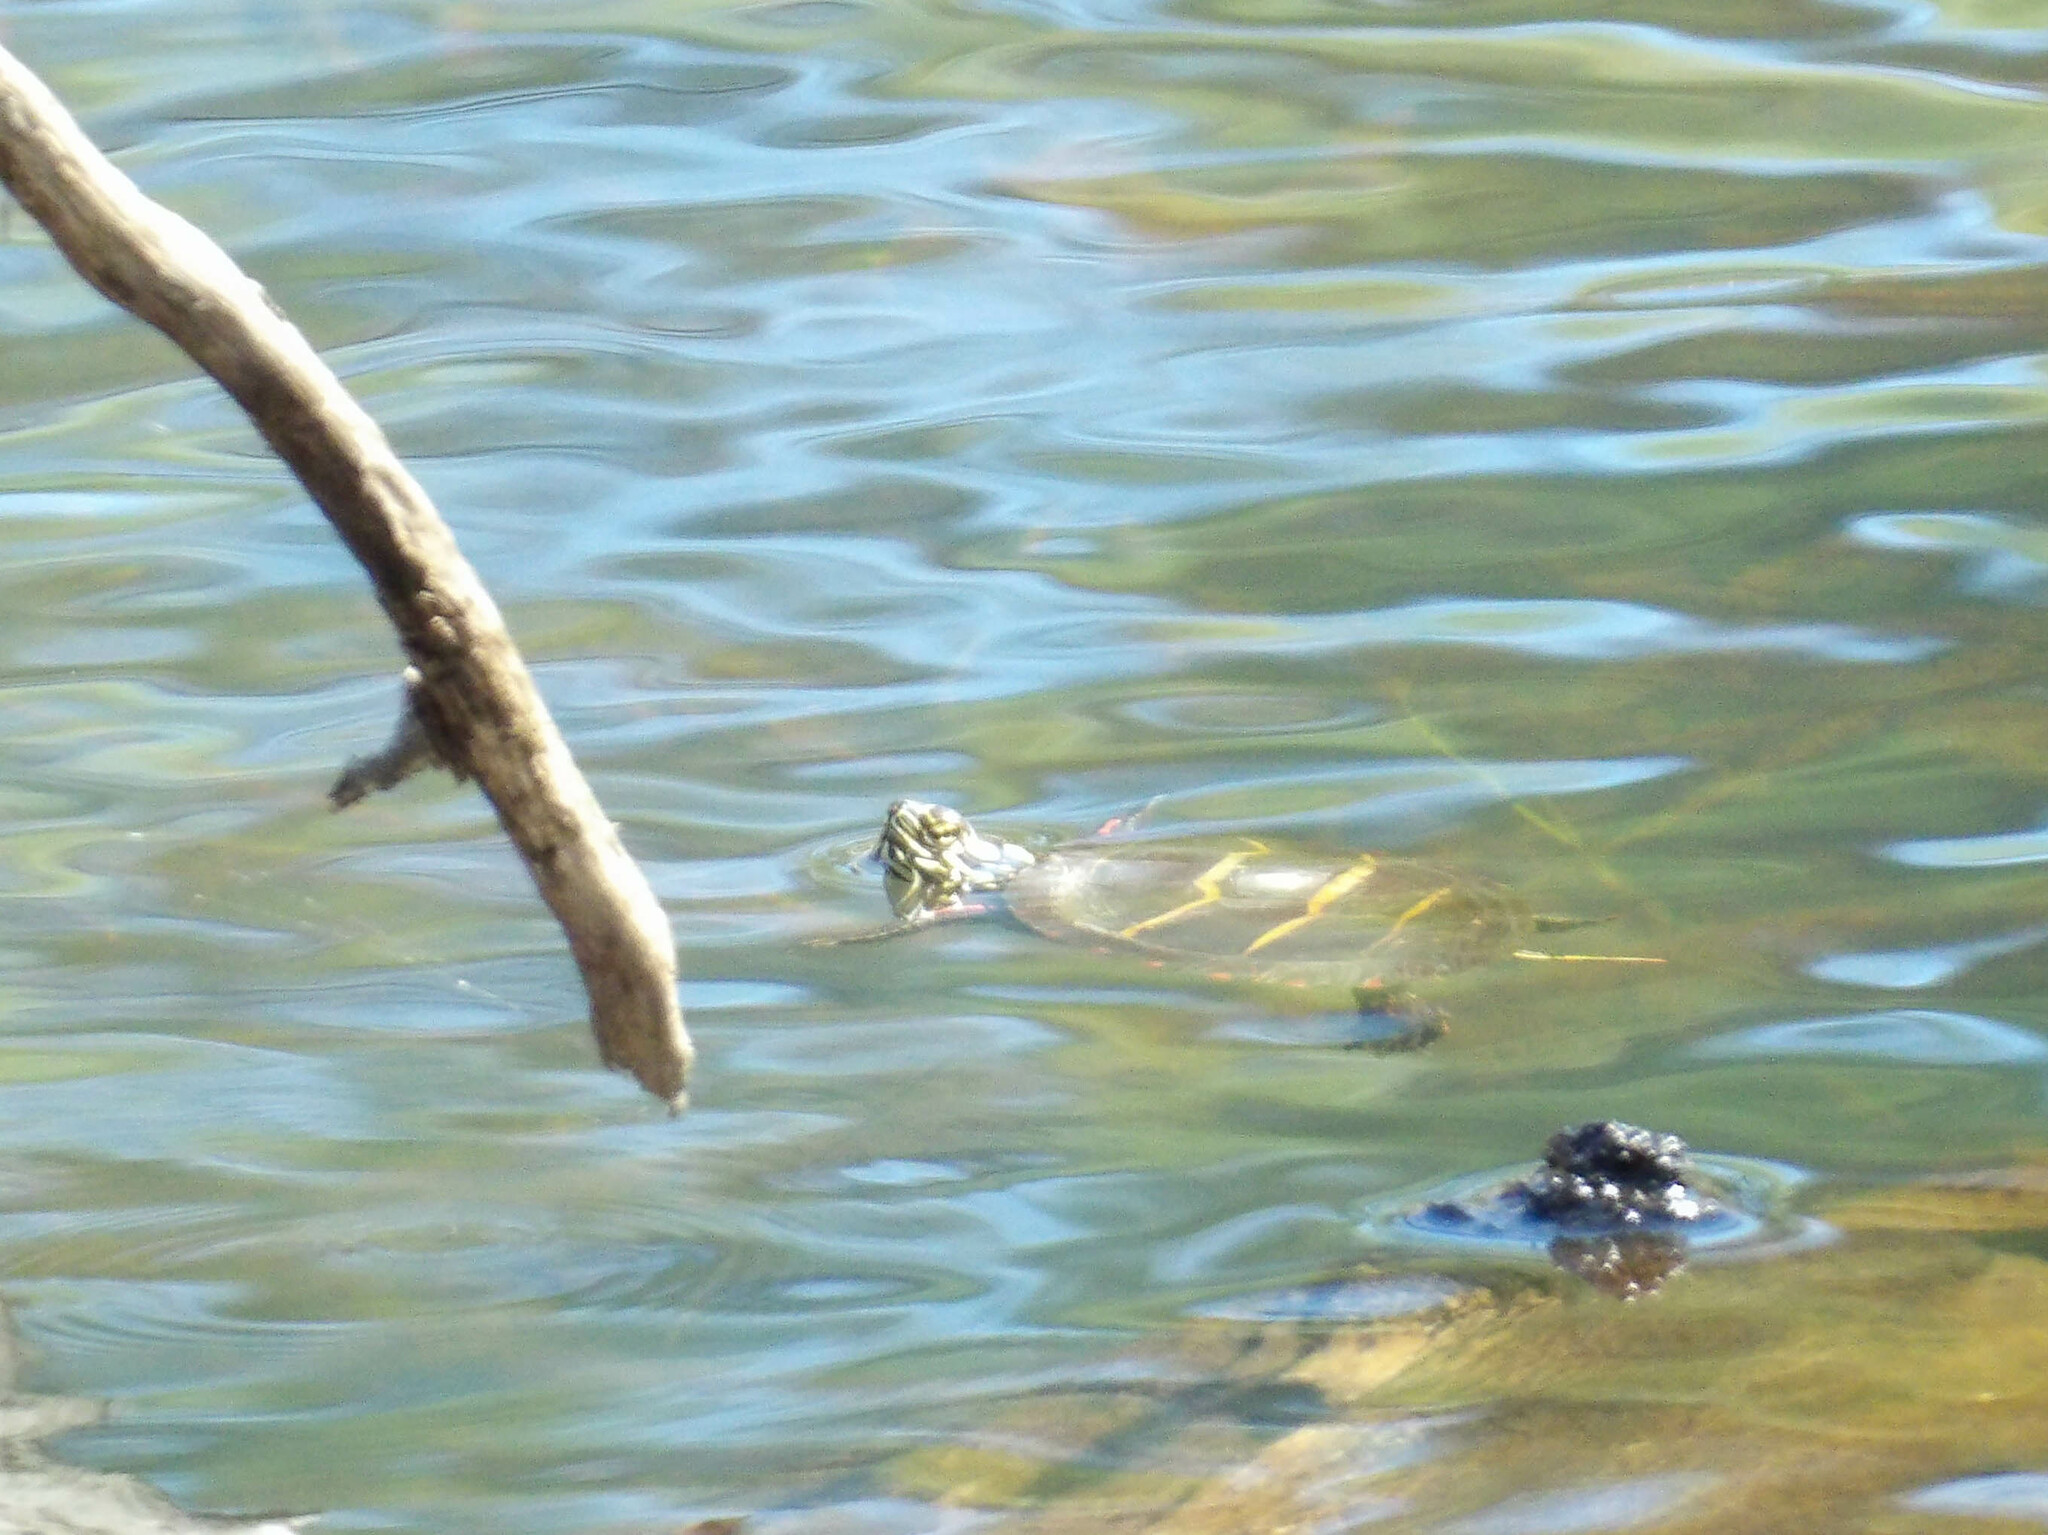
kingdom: Animalia
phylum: Chordata
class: Testudines
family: Emydidae
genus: Chrysemys
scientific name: Chrysemys picta
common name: Painted turtle
